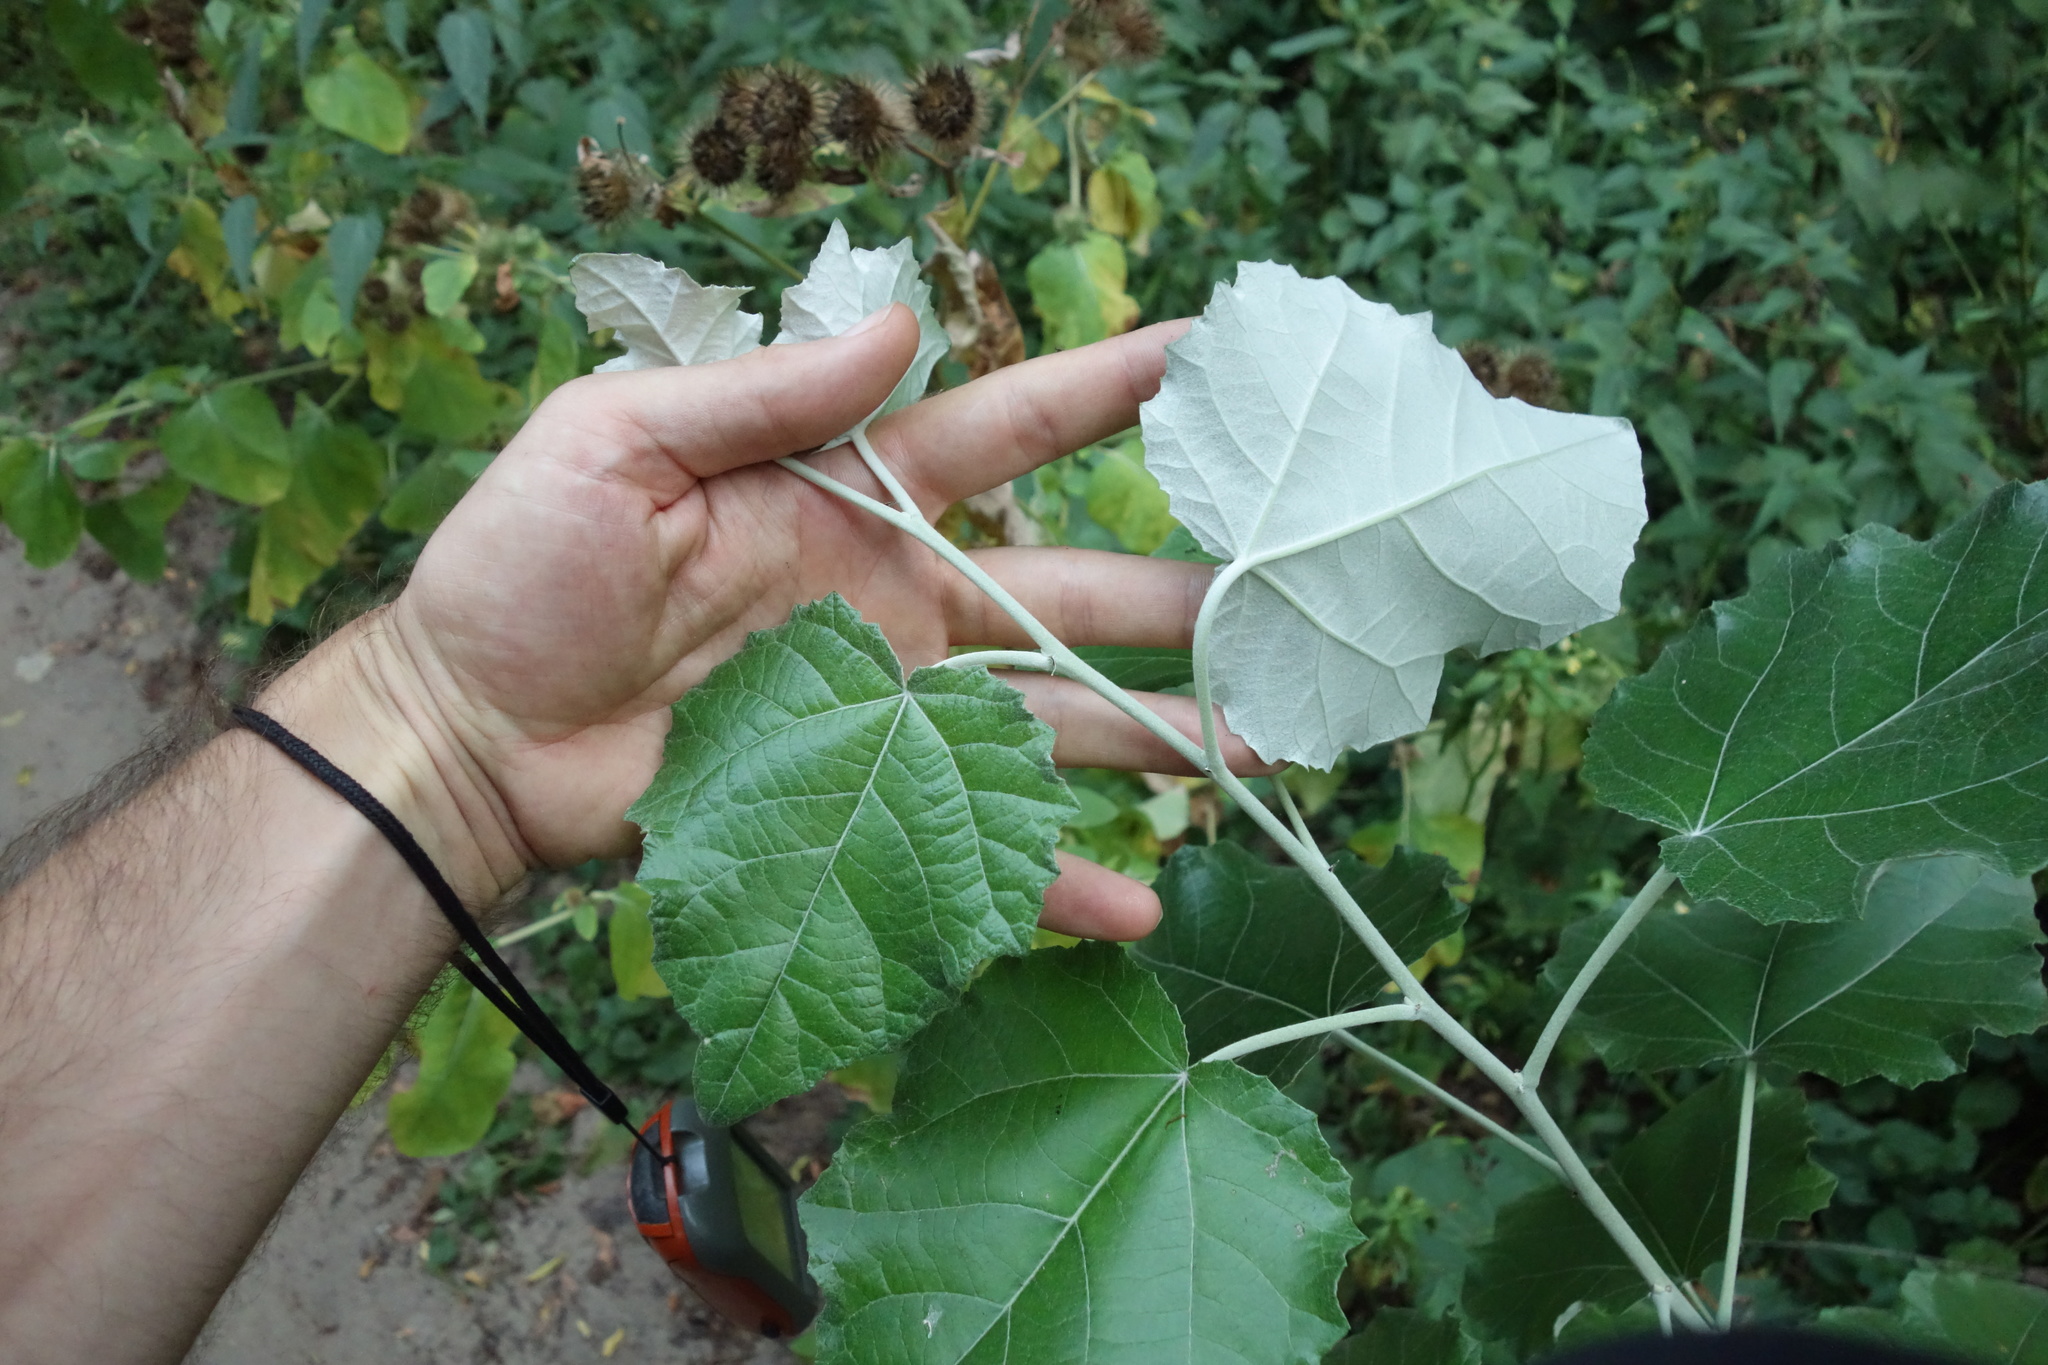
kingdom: Plantae
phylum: Tracheophyta
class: Magnoliopsida
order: Malpighiales
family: Salicaceae
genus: Populus
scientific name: Populus alba
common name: White poplar
